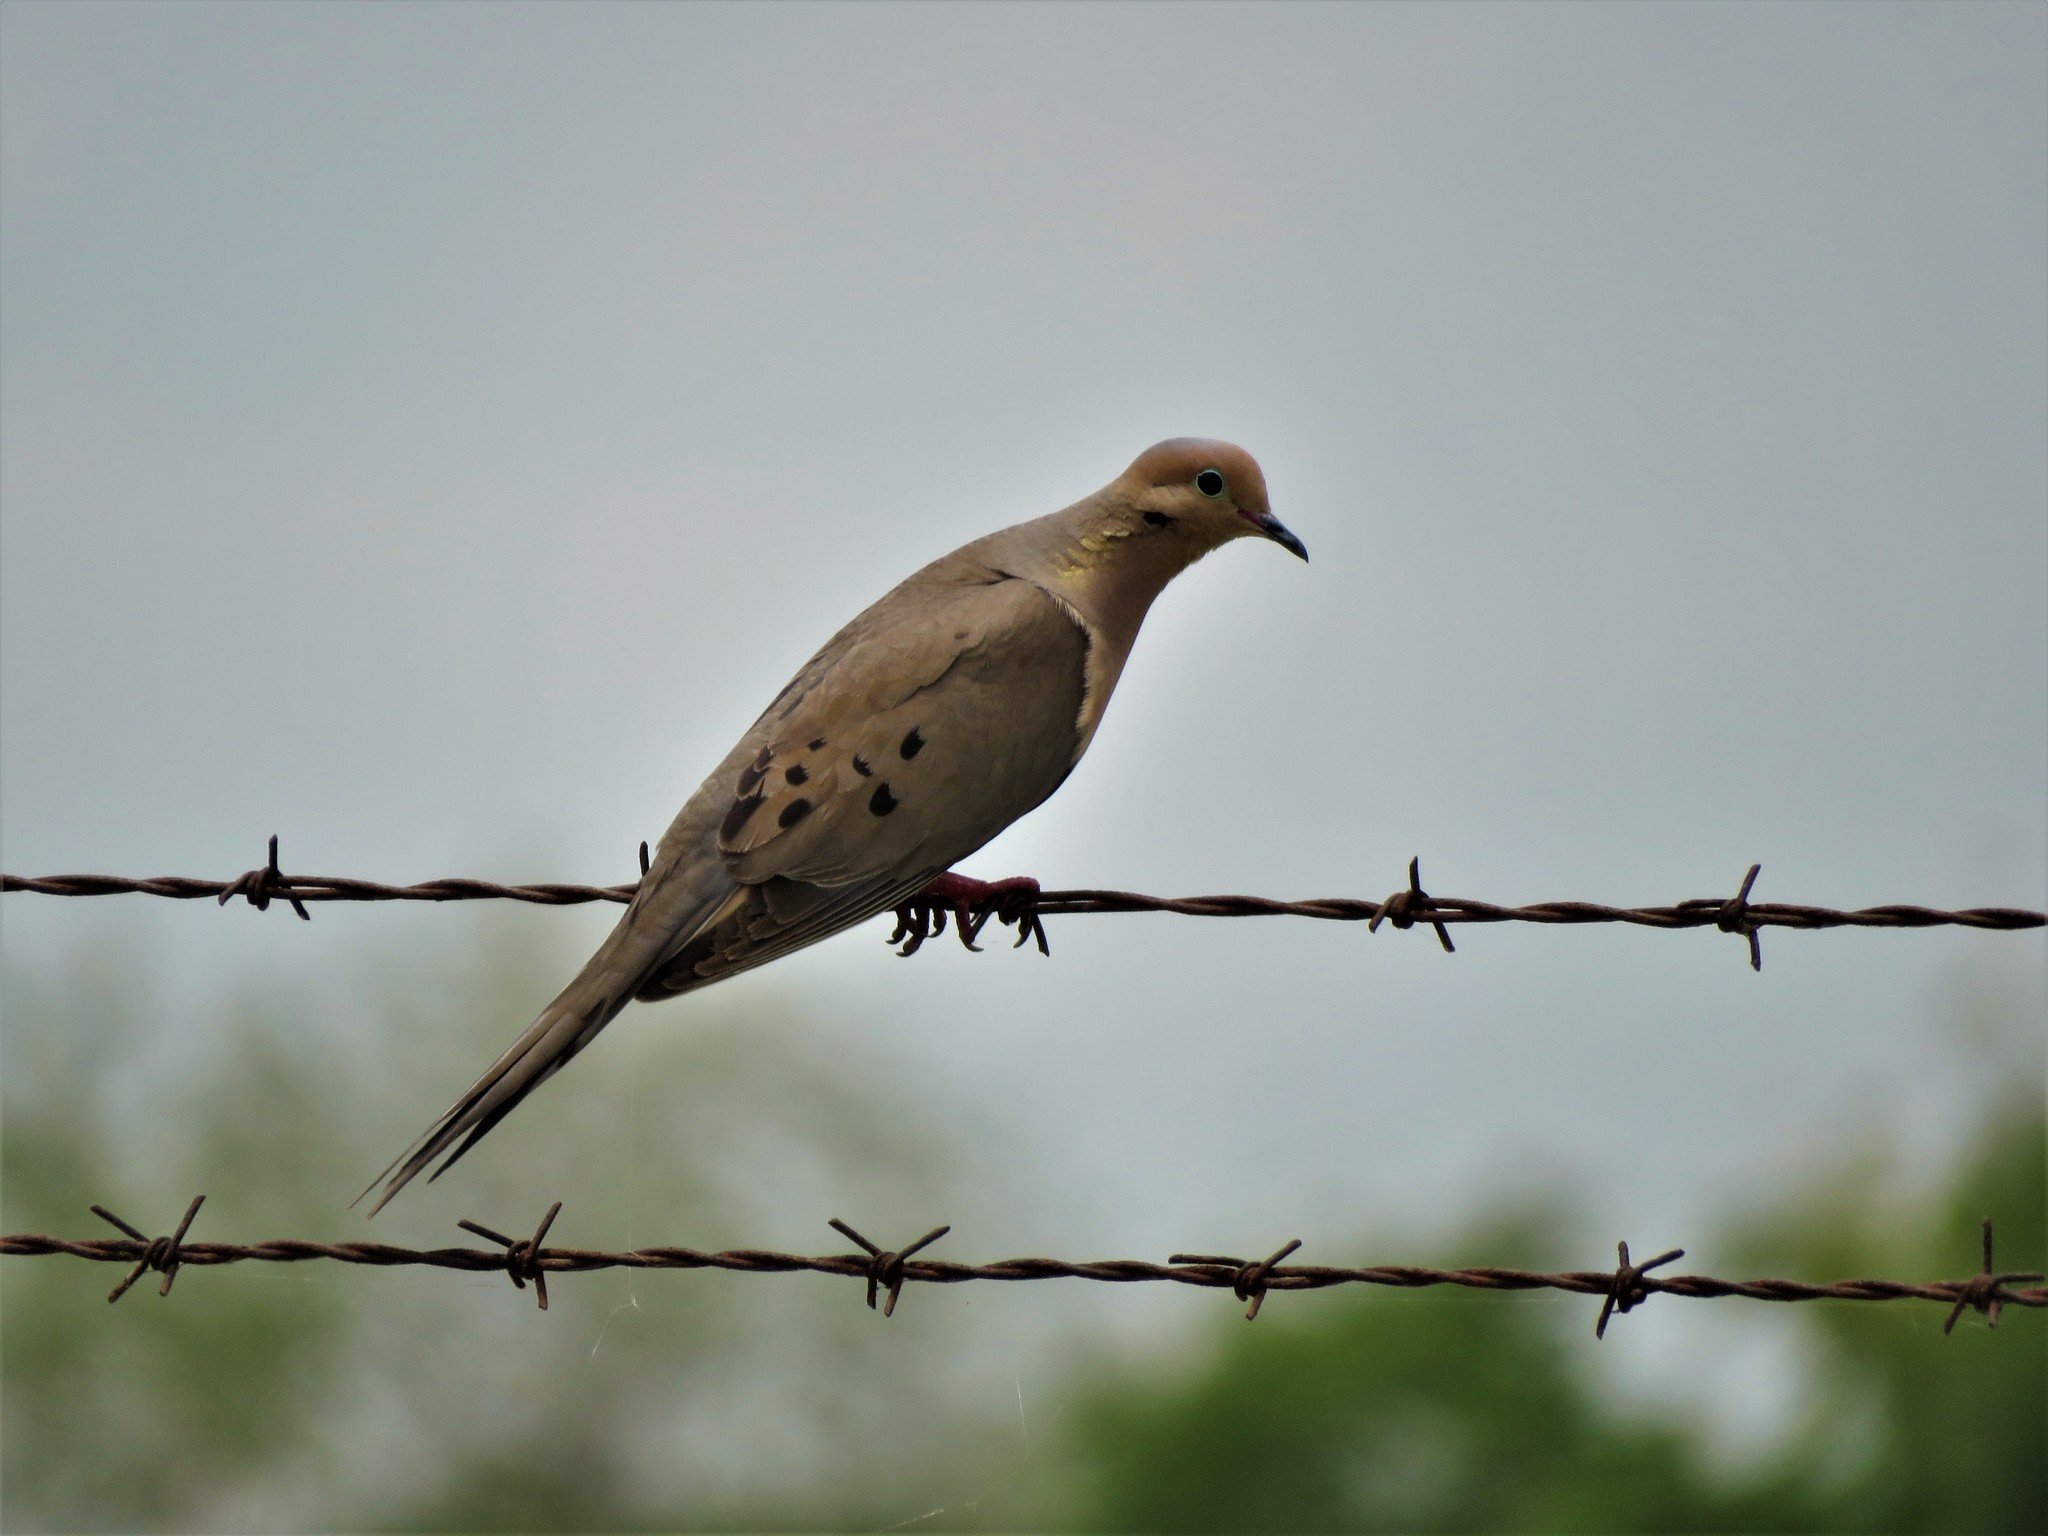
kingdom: Animalia
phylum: Chordata
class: Aves
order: Columbiformes
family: Columbidae
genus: Zenaida
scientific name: Zenaida macroura
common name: Mourning dove
